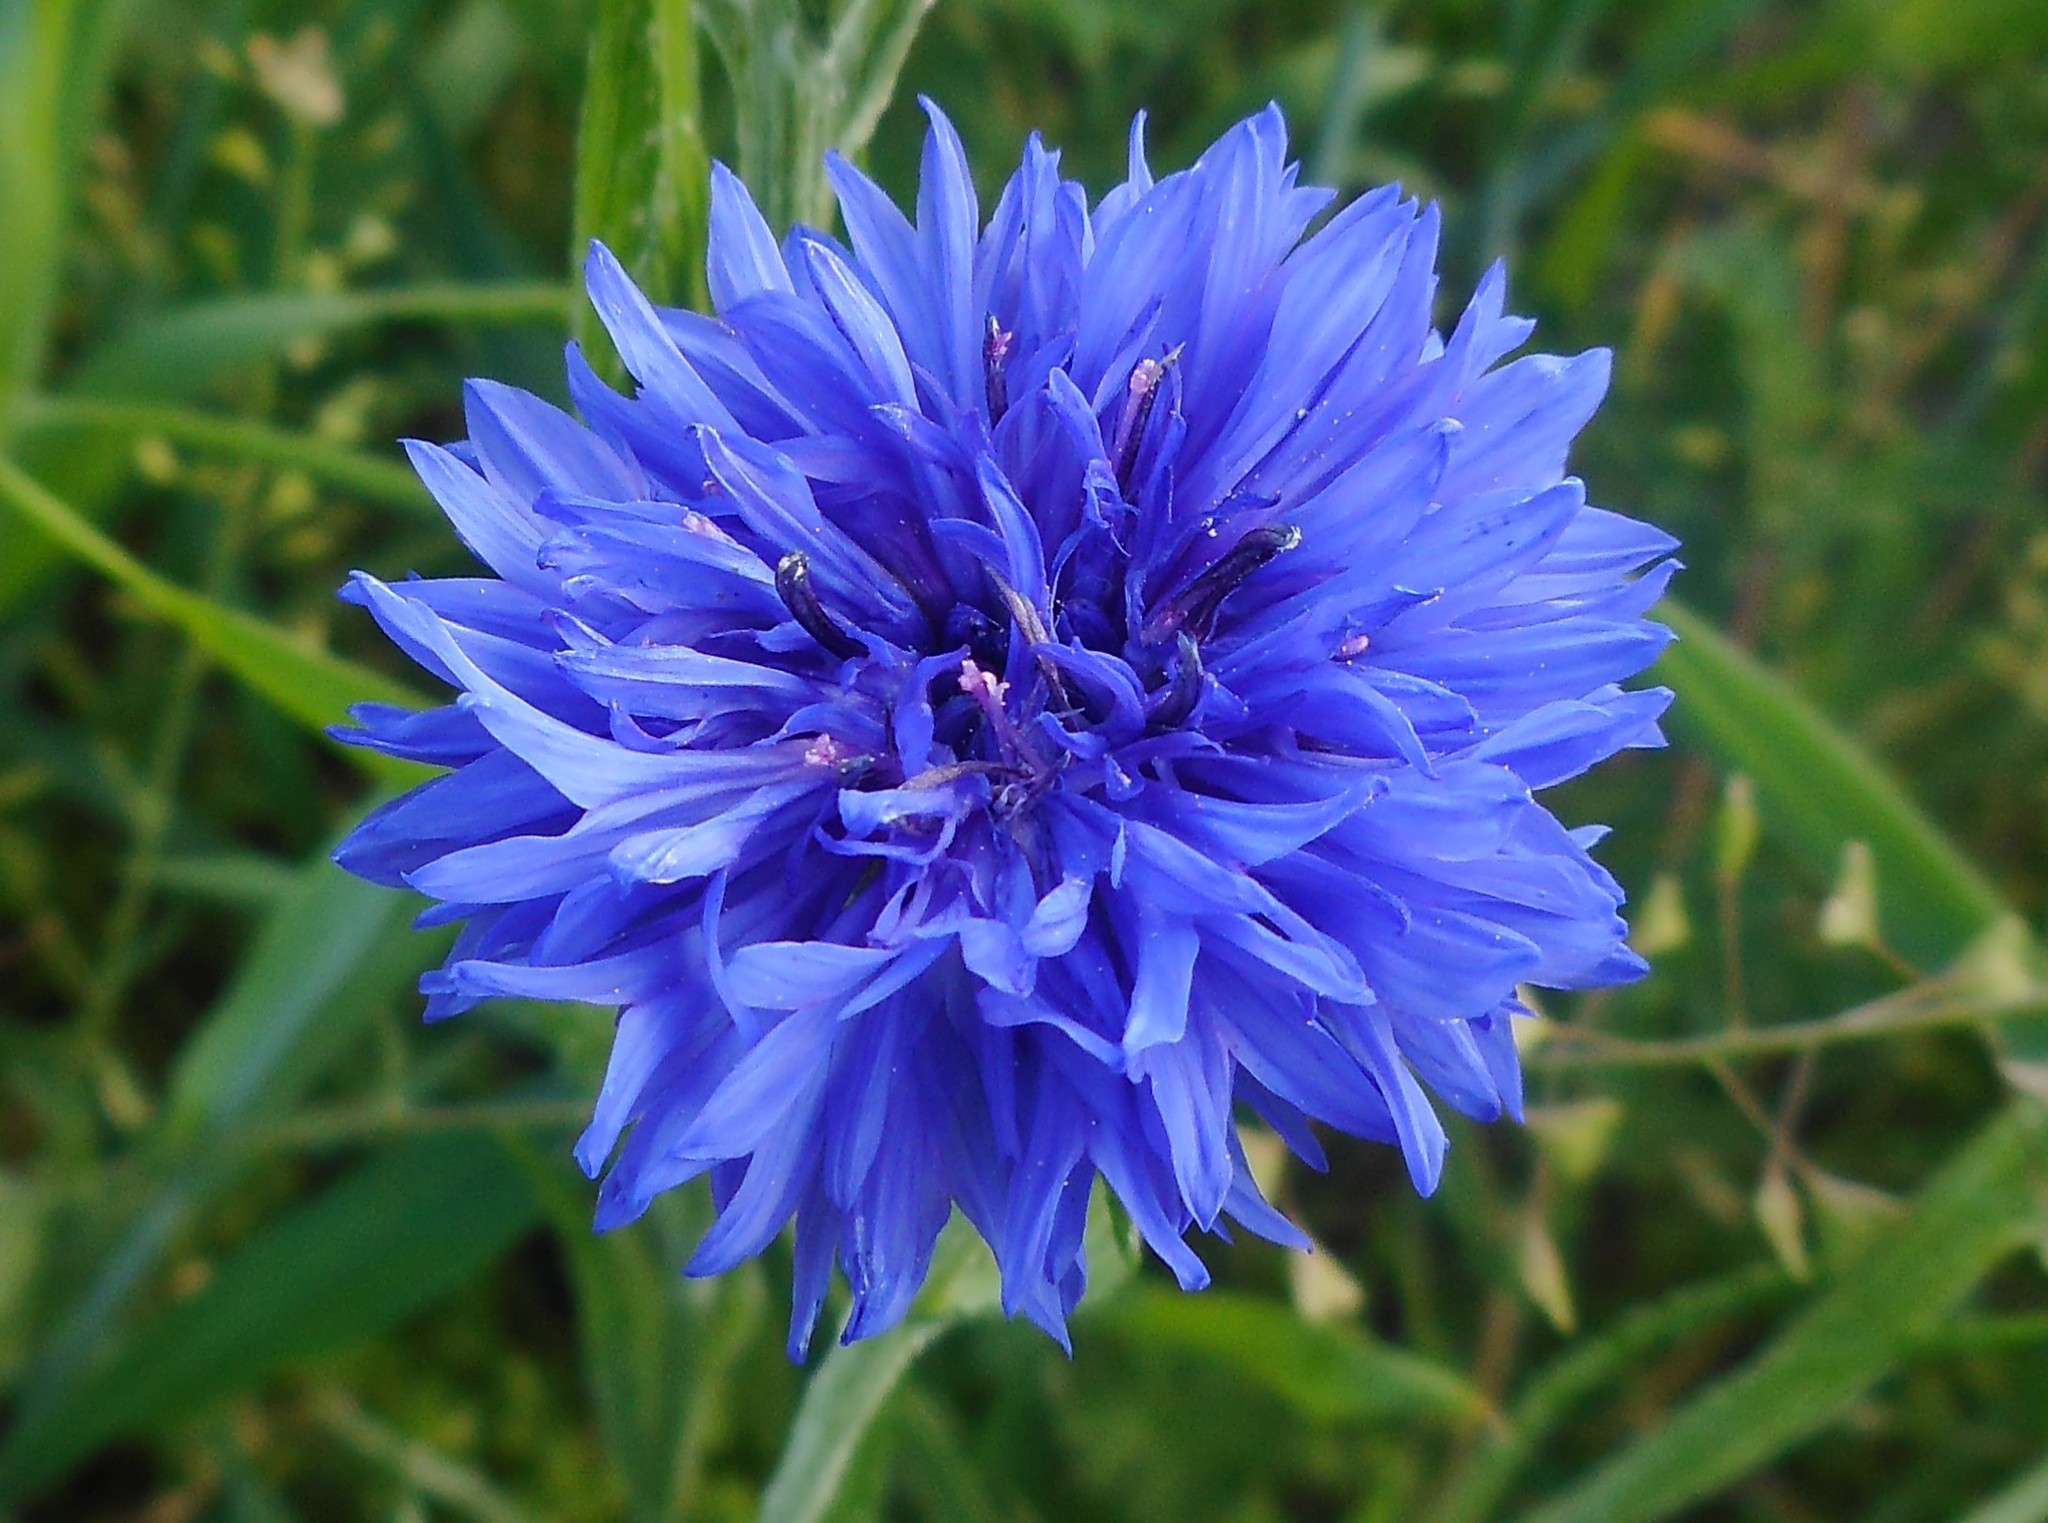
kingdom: Plantae
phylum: Tracheophyta
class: Magnoliopsida
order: Asterales
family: Asteraceae
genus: Centaurea
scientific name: Centaurea cyanus
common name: Cornflower
